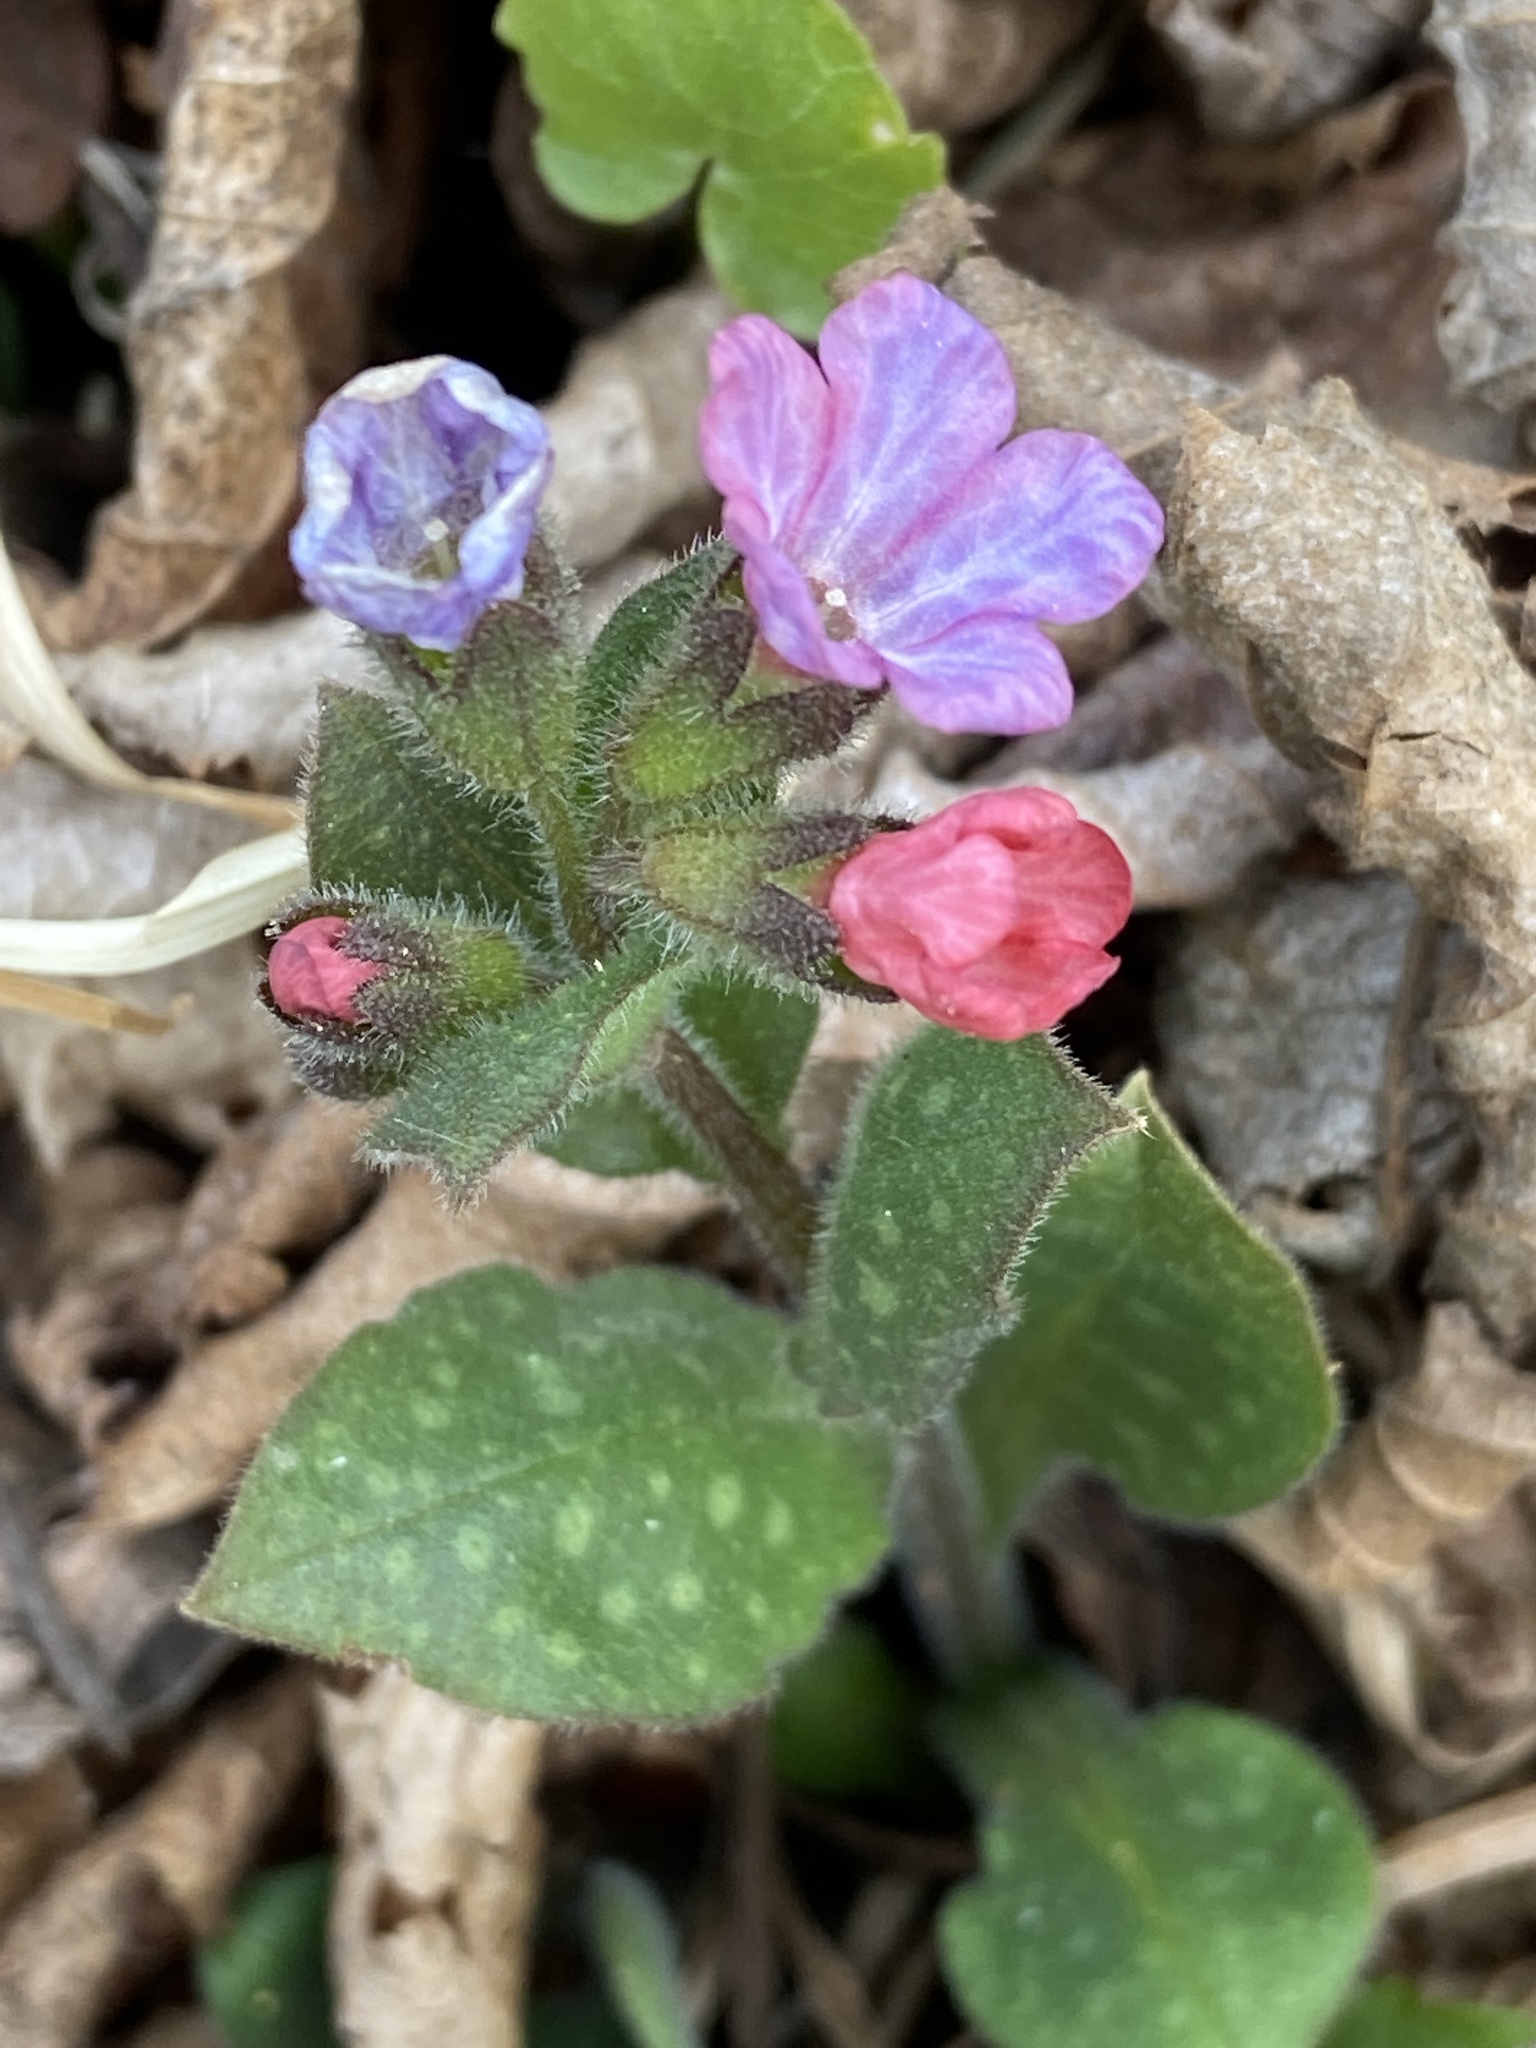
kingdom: Plantae
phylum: Tracheophyta
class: Magnoliopsida
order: Boraginales
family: Boraginaceae
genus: Pulmonaria
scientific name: Pulmonaria officinalis
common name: Lungwort
